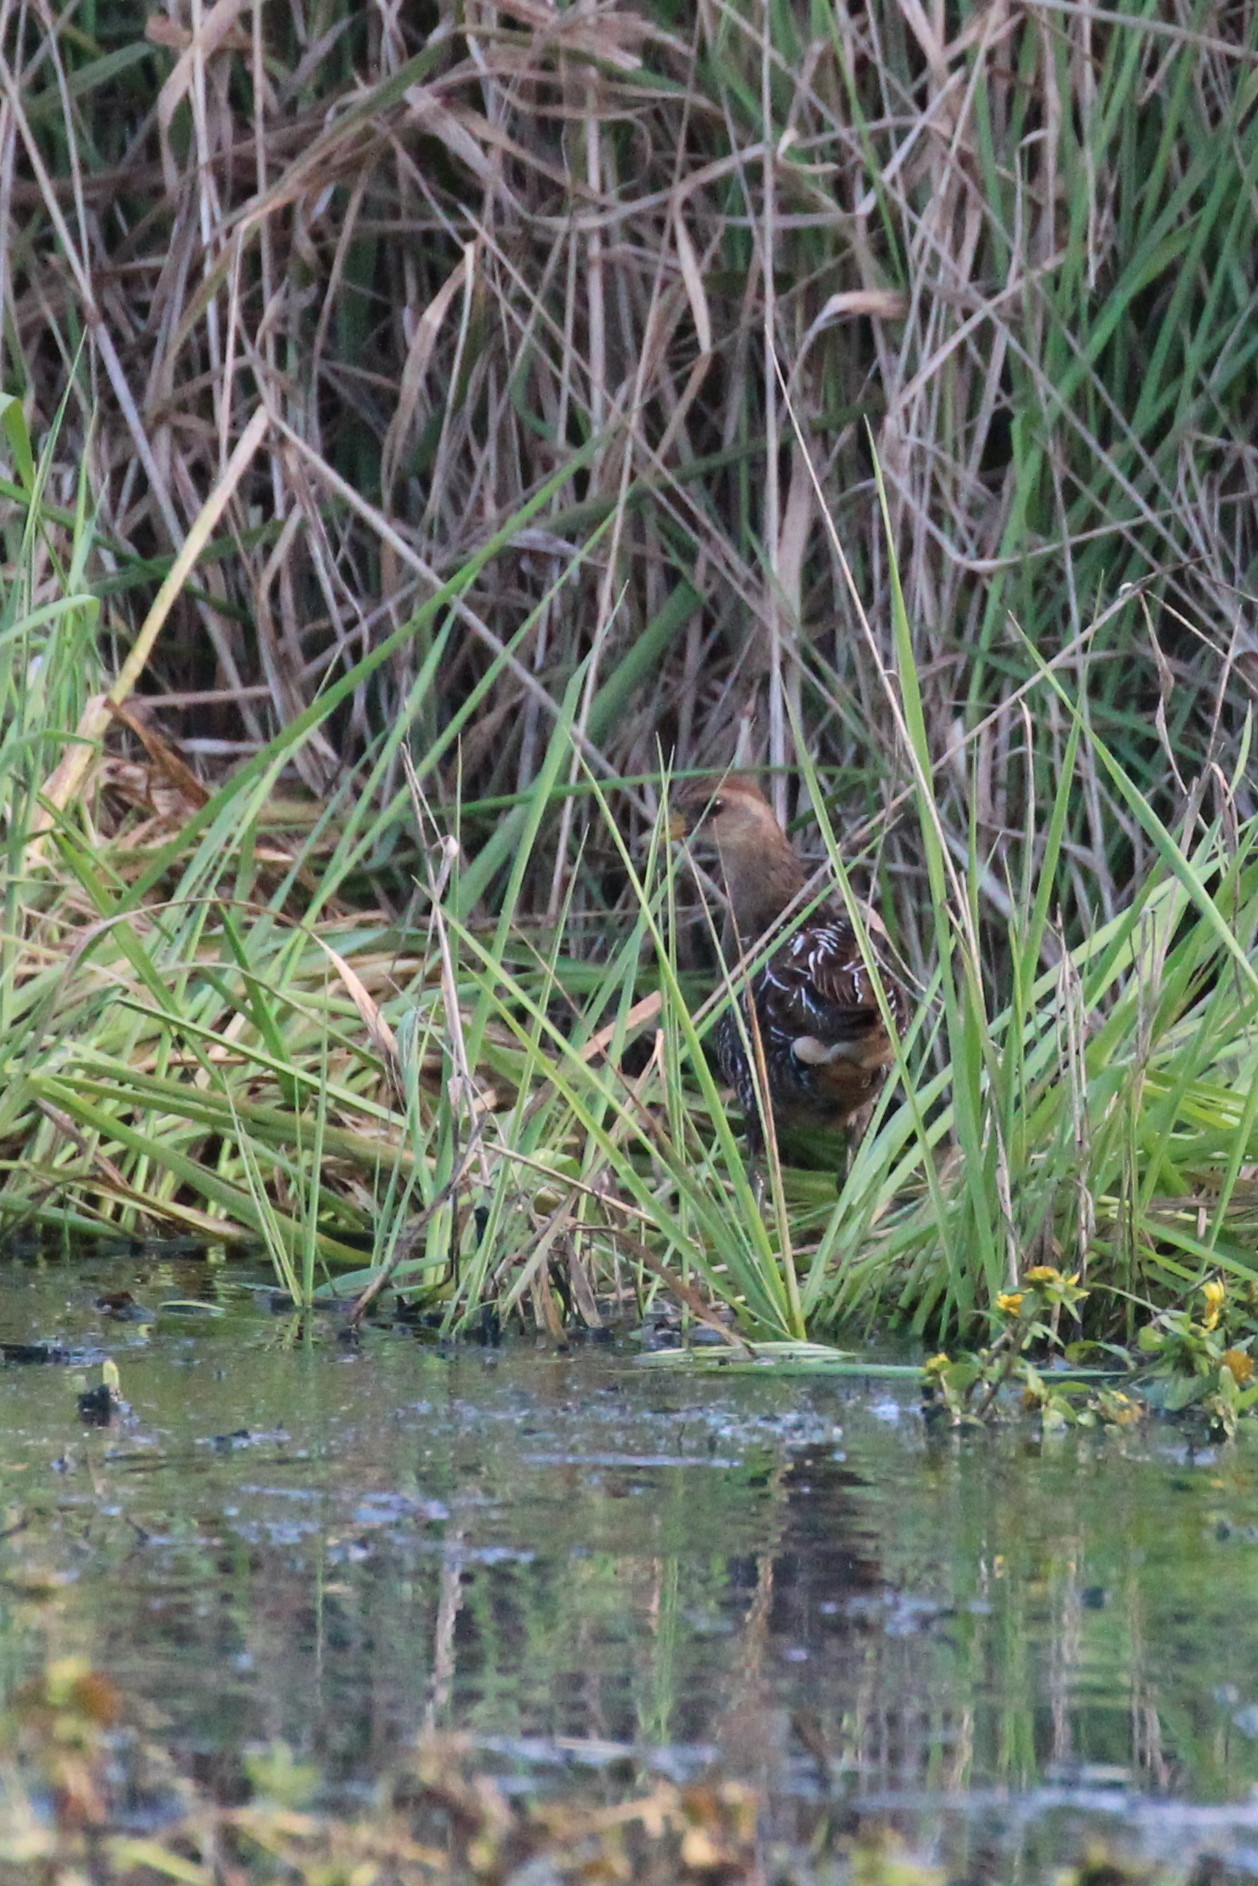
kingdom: Animalia
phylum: Chordata
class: Aves
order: Gruiformes
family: Rallidae
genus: Porzana
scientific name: Porzana carolina
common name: Sora
